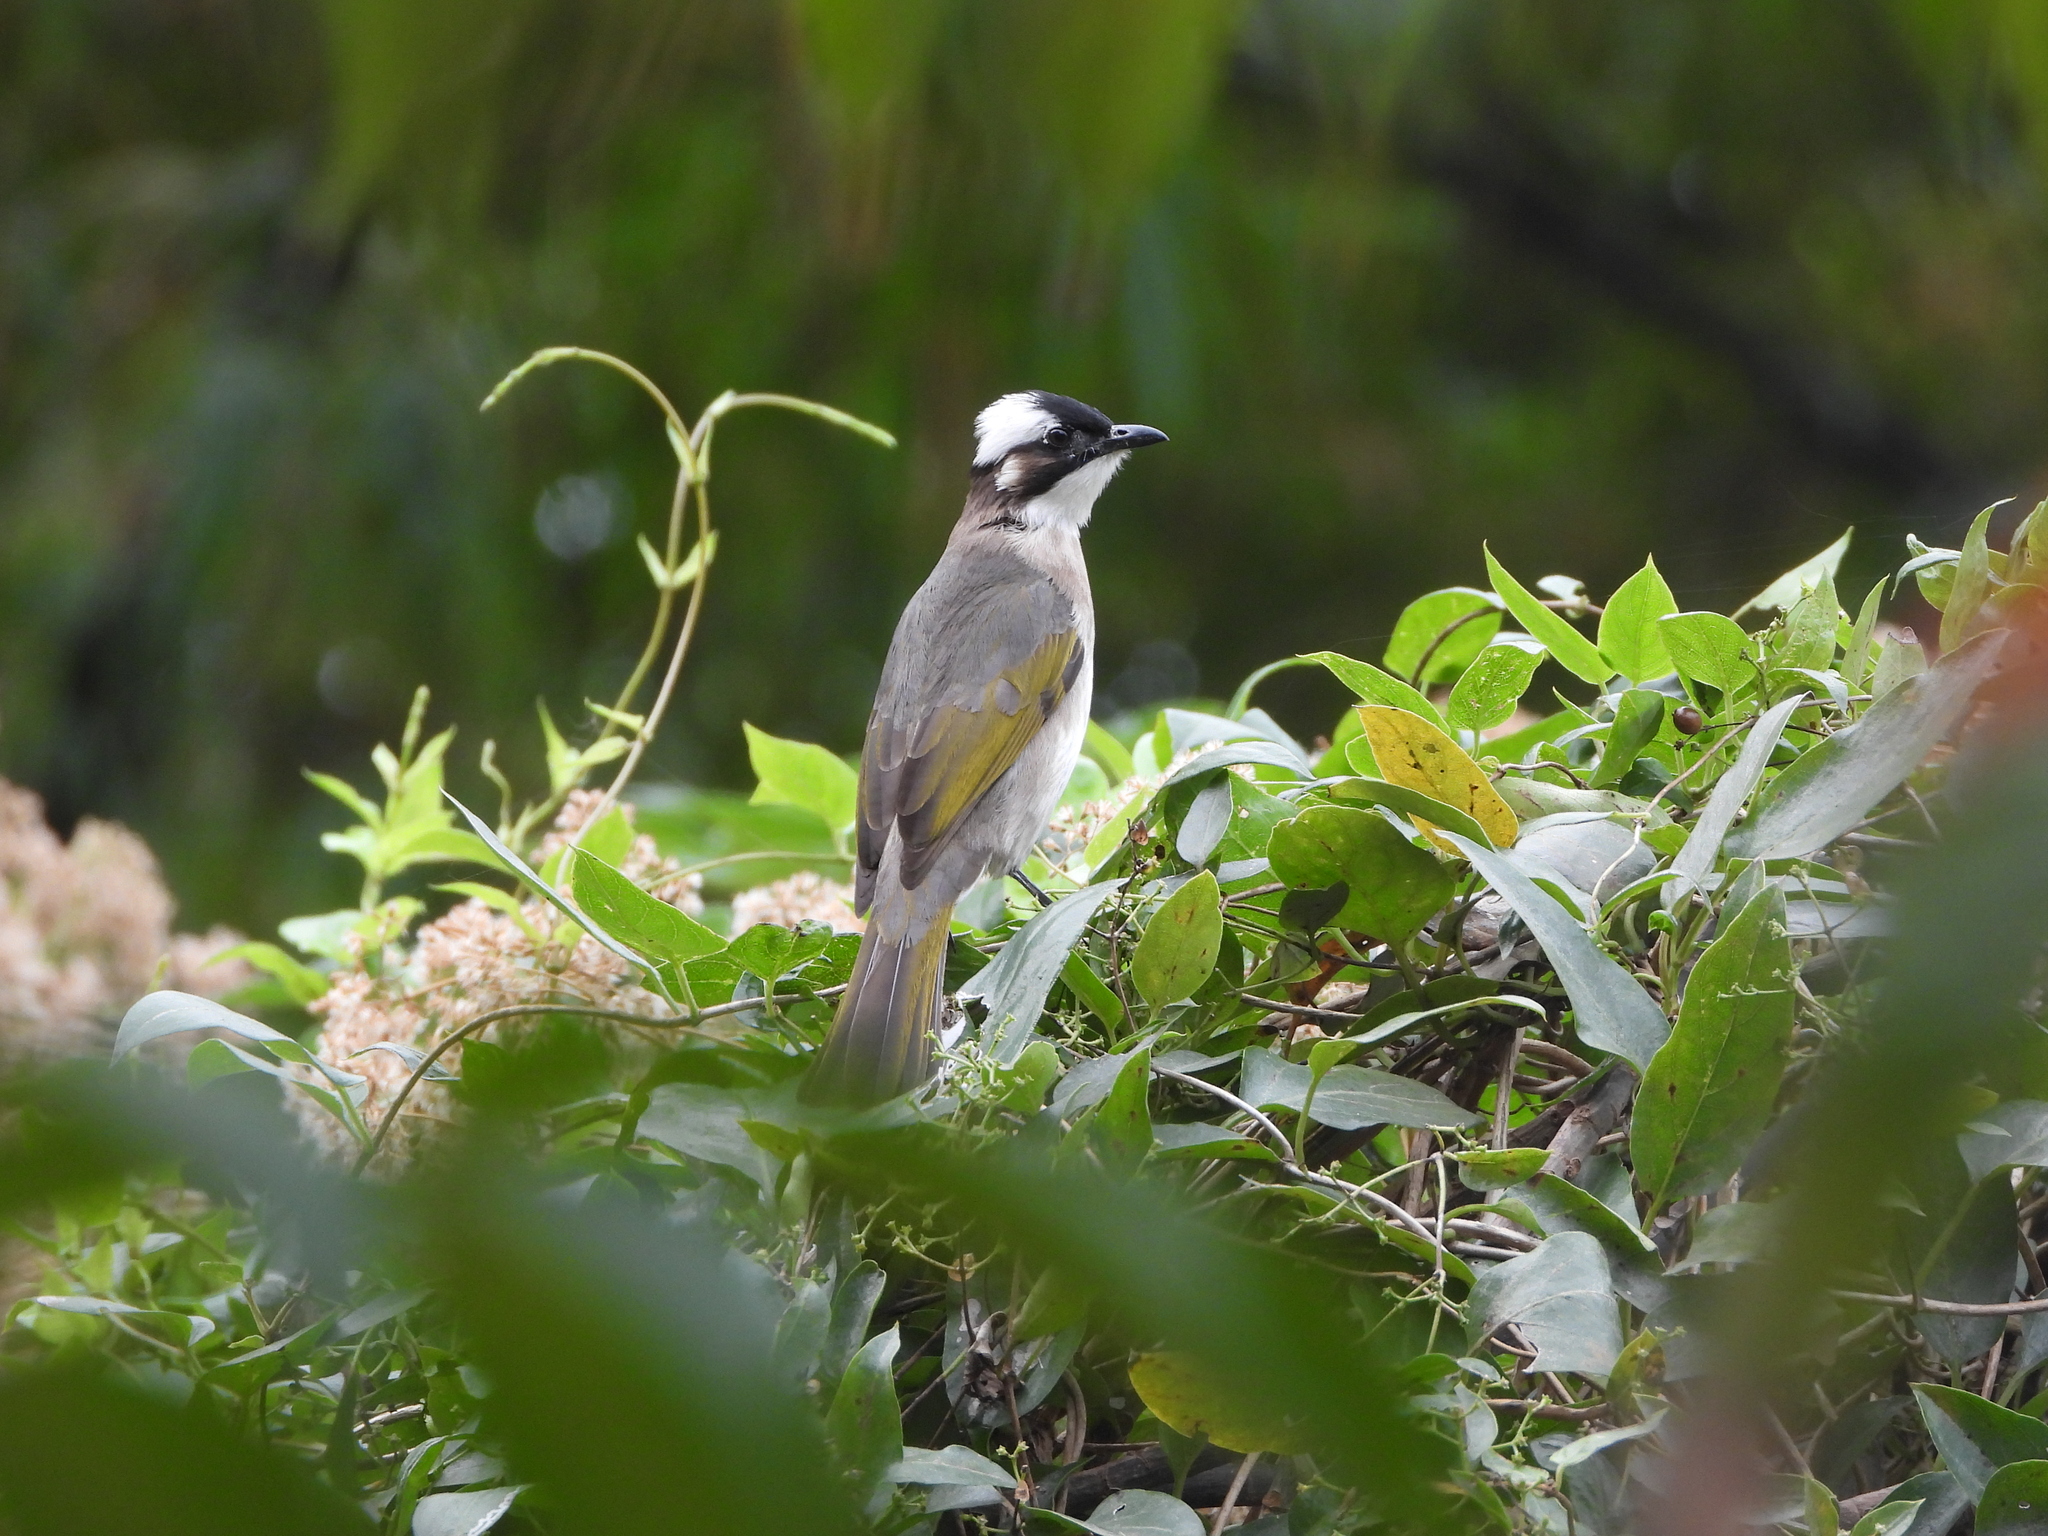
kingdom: Animalia
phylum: Chordata
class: Aves
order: Passeriformes
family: Pycnonotidae
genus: Pycnonotus
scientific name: Pycnonotus sinensis
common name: Light-vented bulbul
